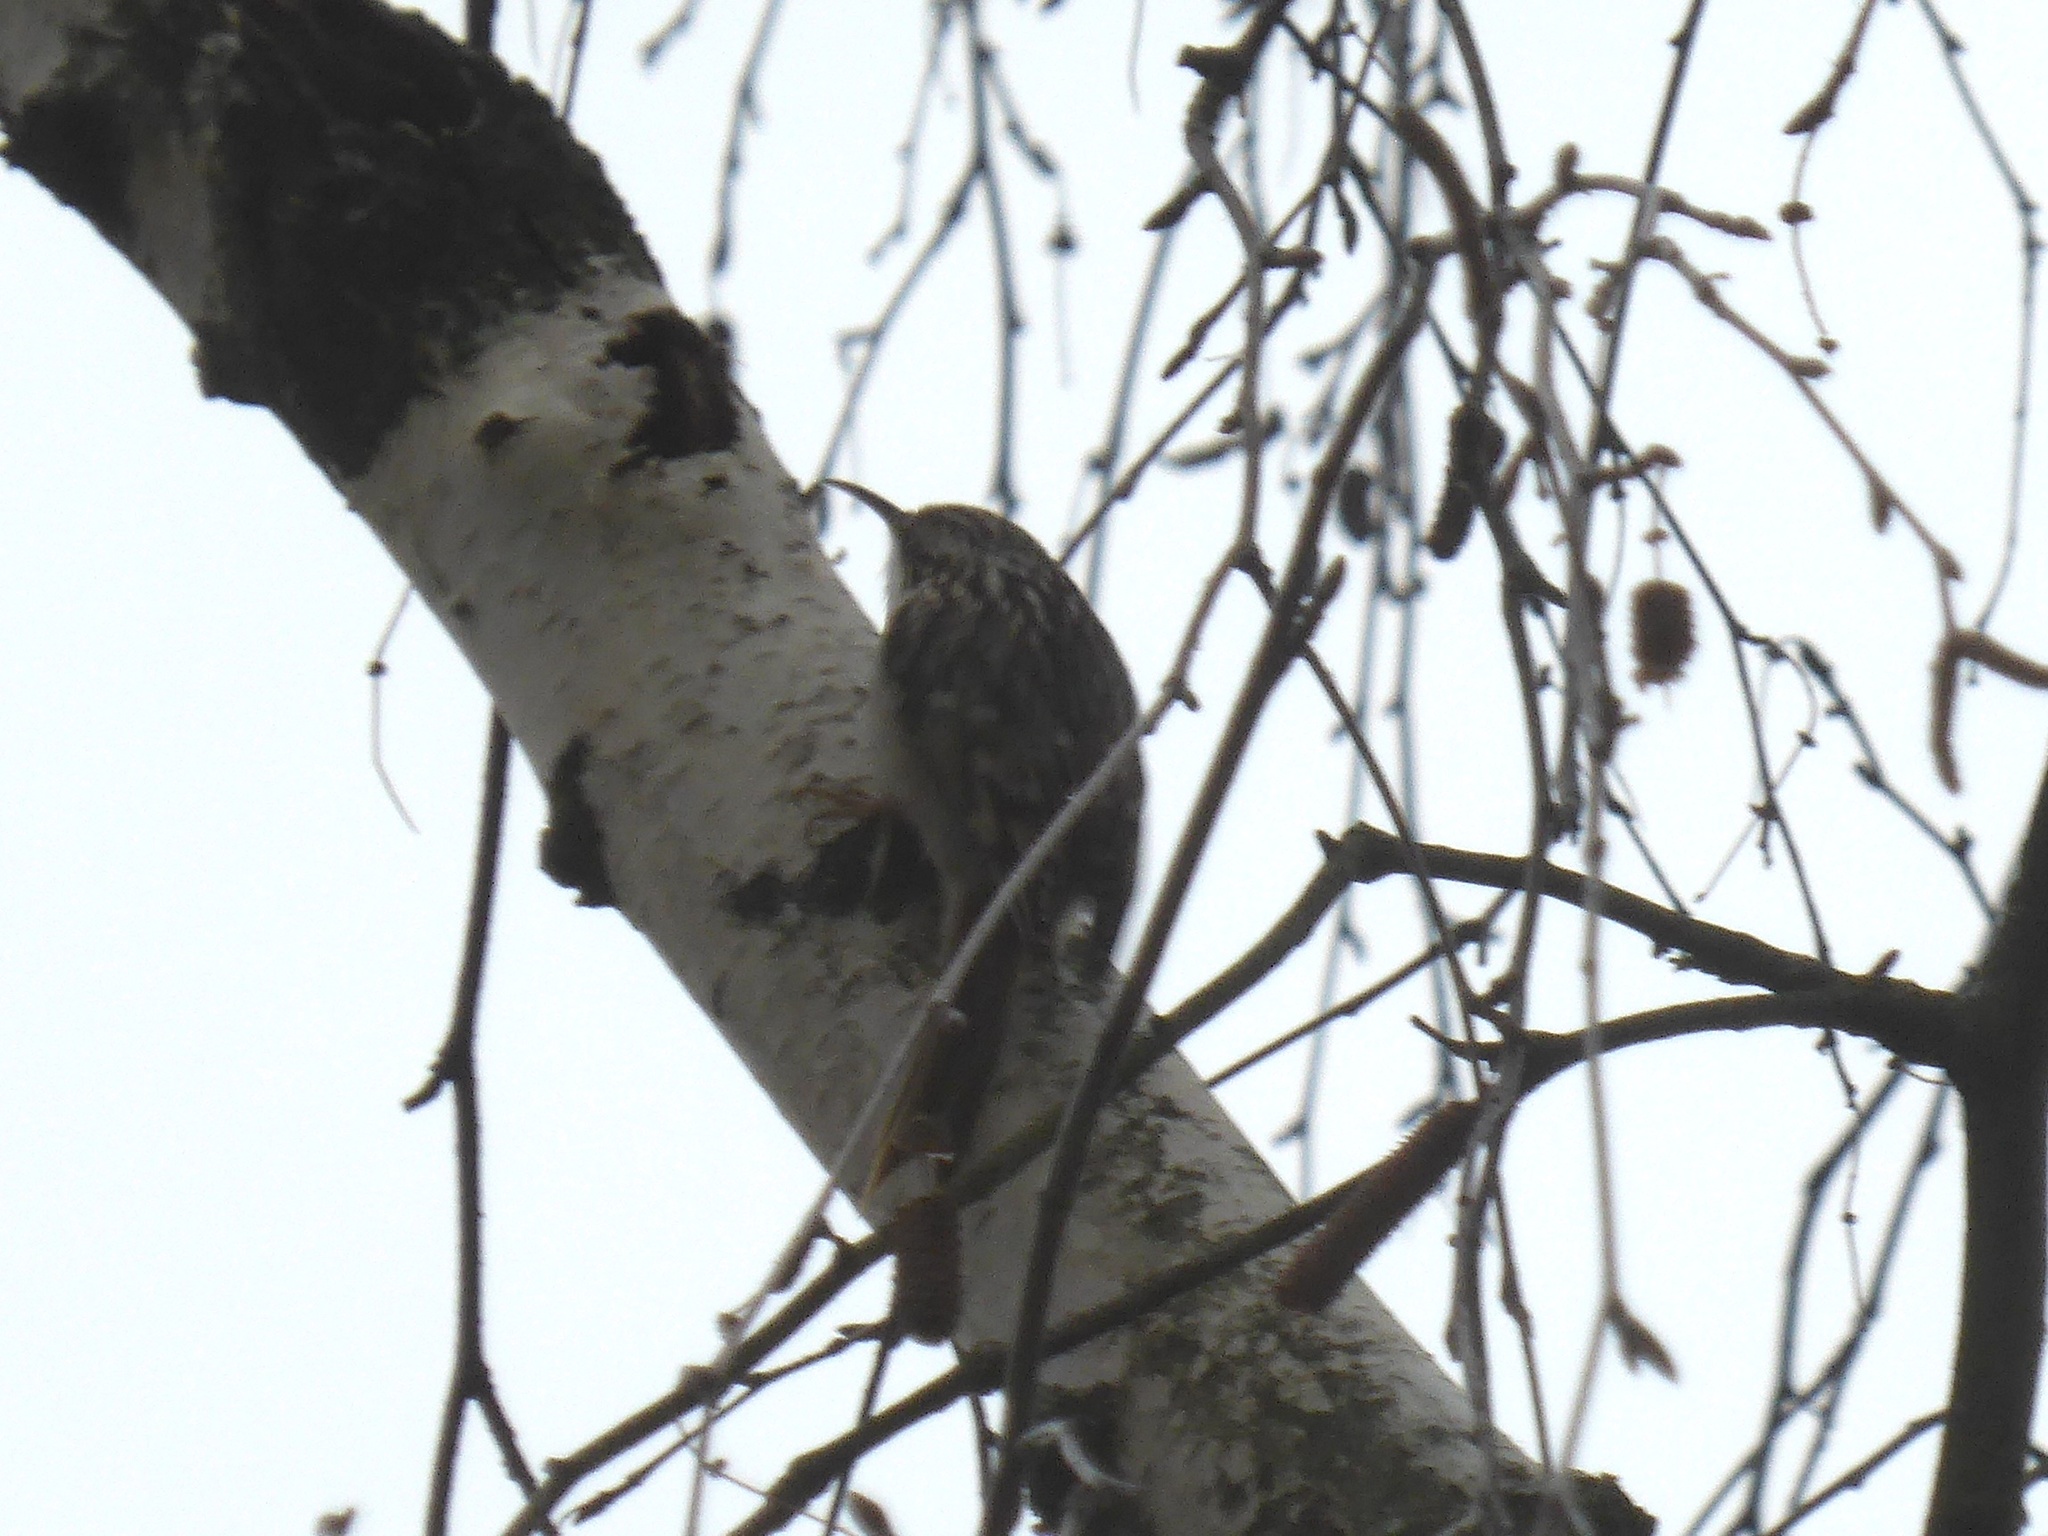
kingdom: Animalia
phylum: Chordata
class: Aves
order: Passeriformes
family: Certhiidae
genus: Certhia
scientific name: Certhia brachydactyla
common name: Short-toed treecreeper
